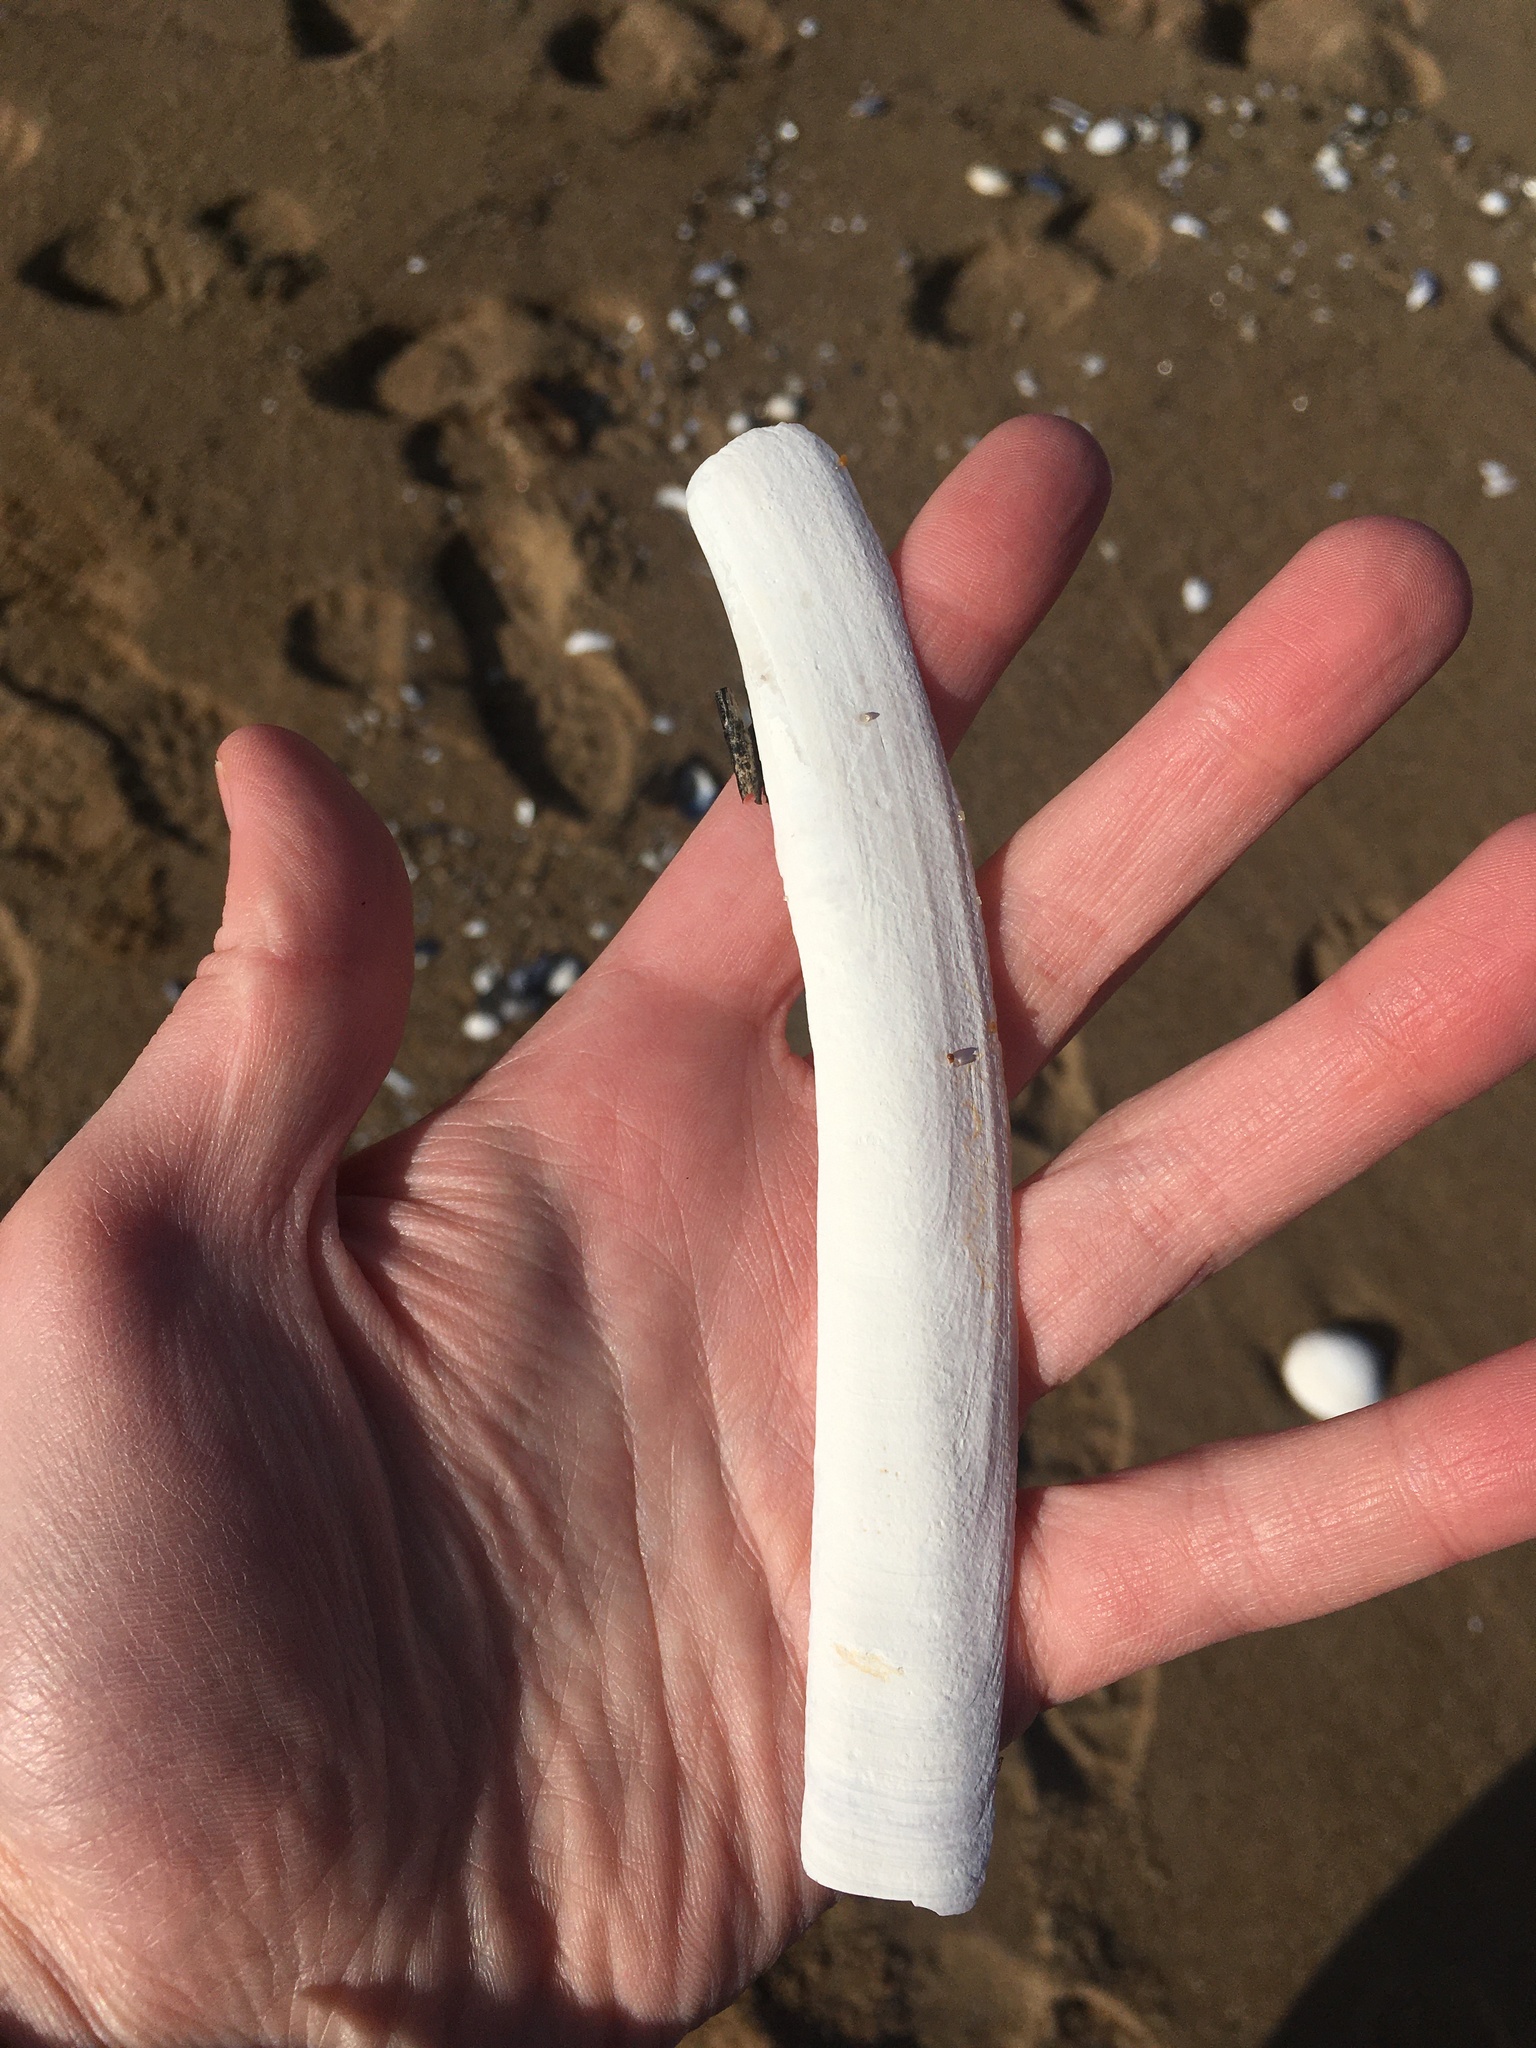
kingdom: Animalia
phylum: Mollusca
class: Bivalvia
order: Adapedonta
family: Pharidae
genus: Ensis
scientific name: Ensis leei
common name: American jack knife clam
